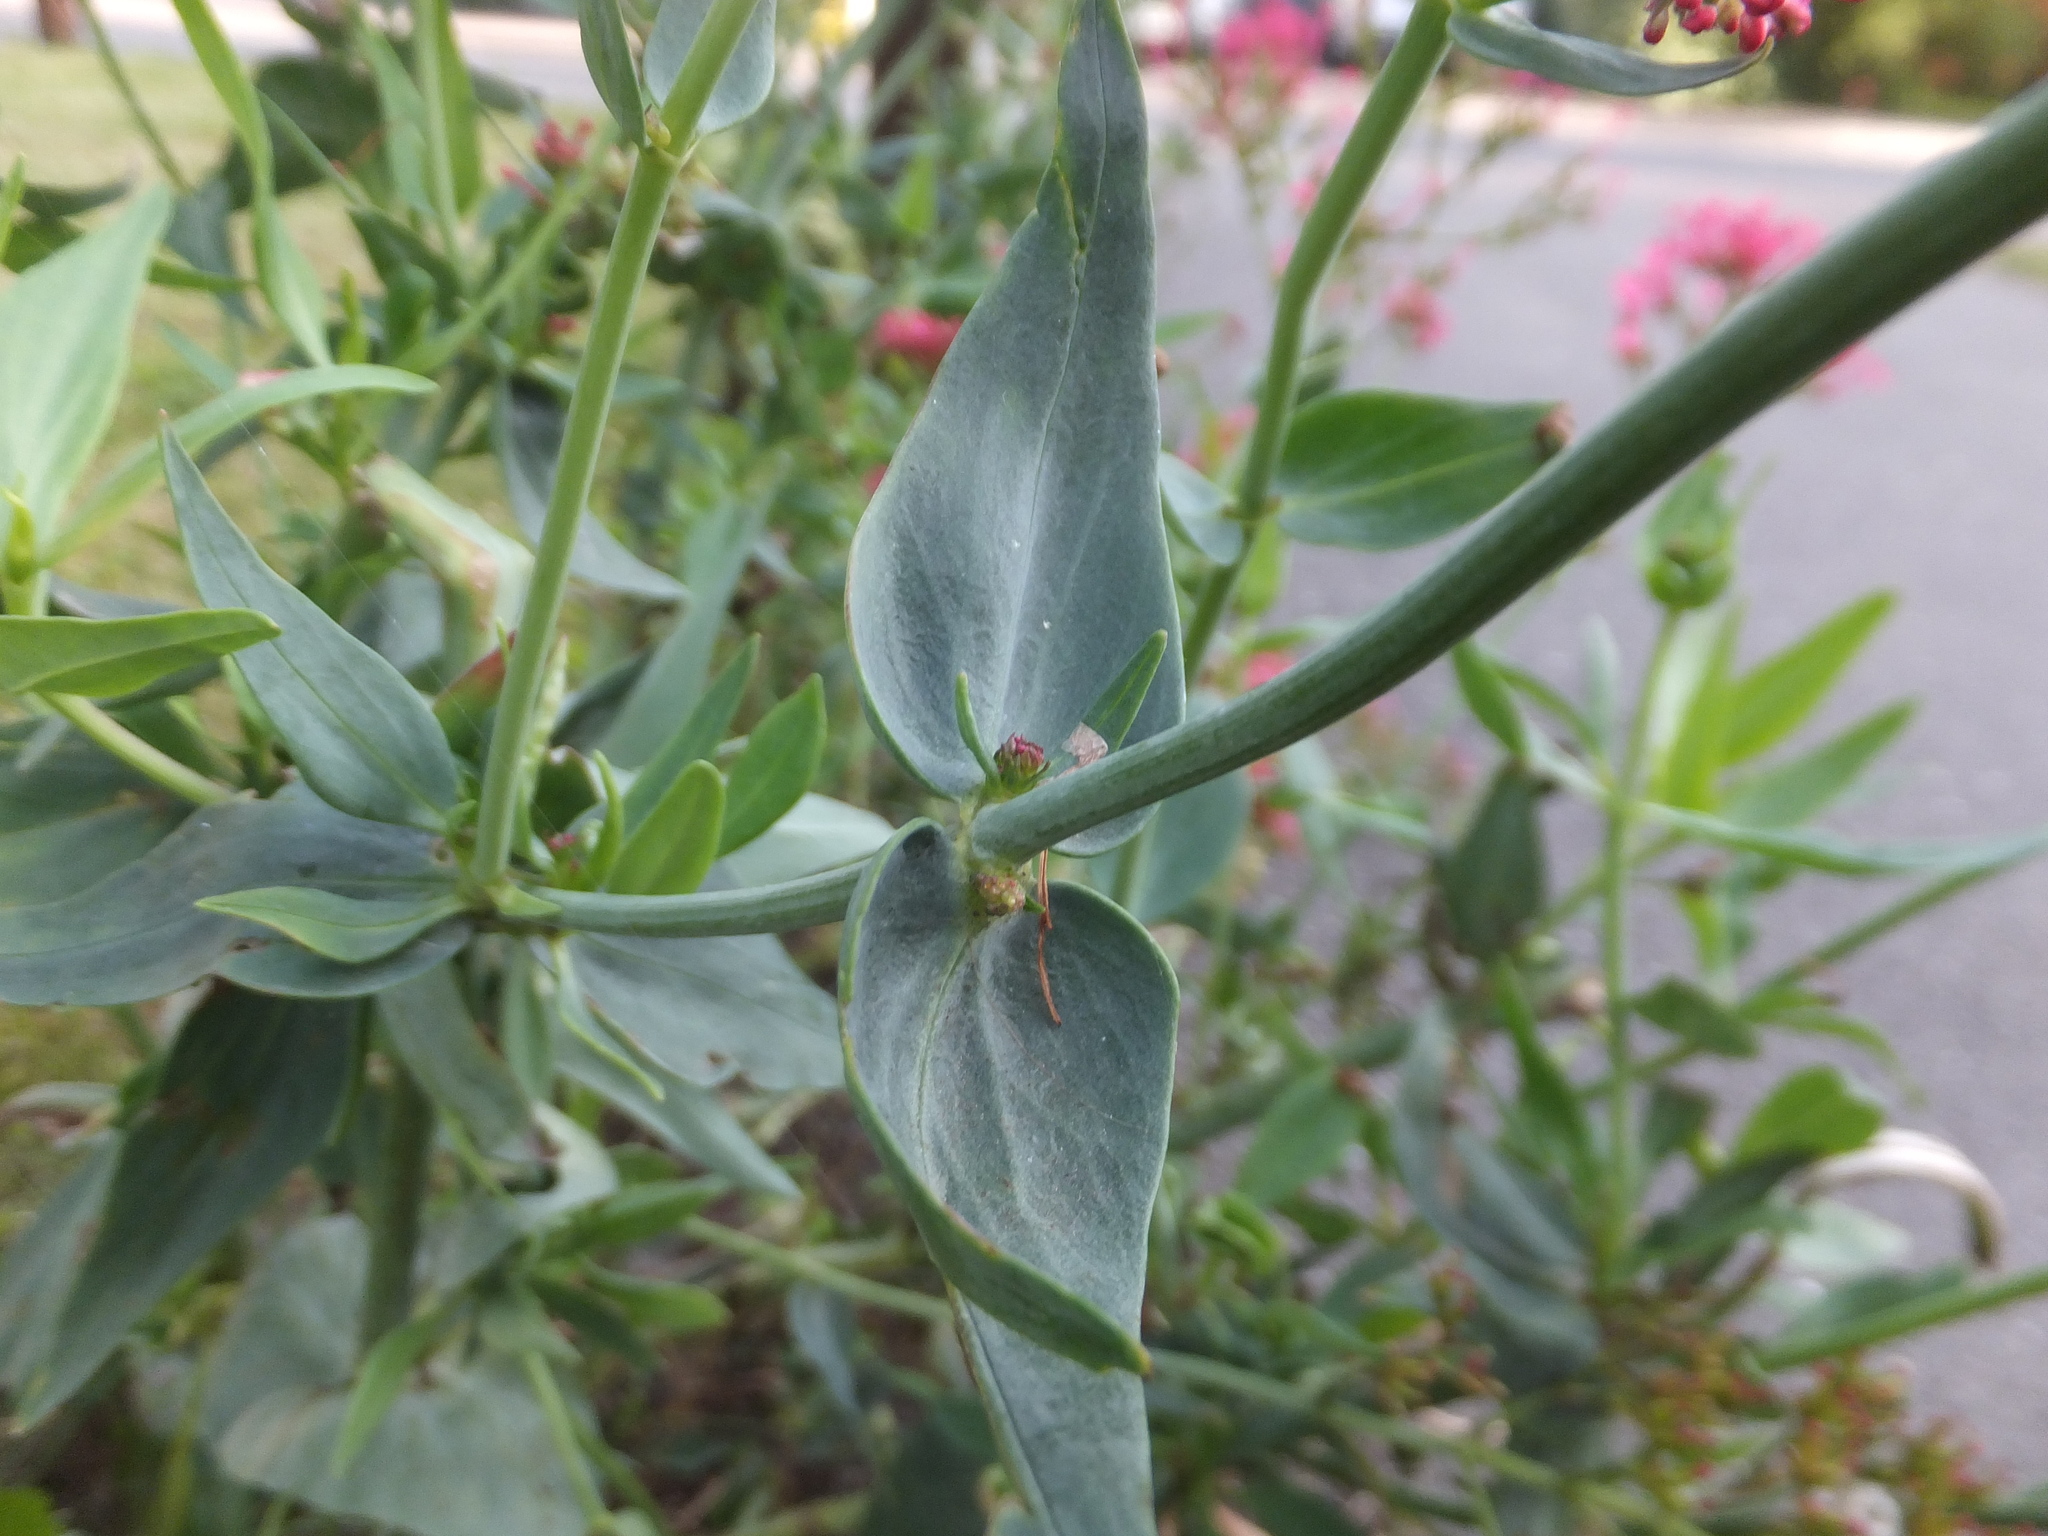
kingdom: Plantae
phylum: Tracheophyta
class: Magnoliopsida
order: Dipsacales
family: Caprifoliaceae
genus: Centranthus
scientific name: Centranthus ruber
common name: Red valerian
